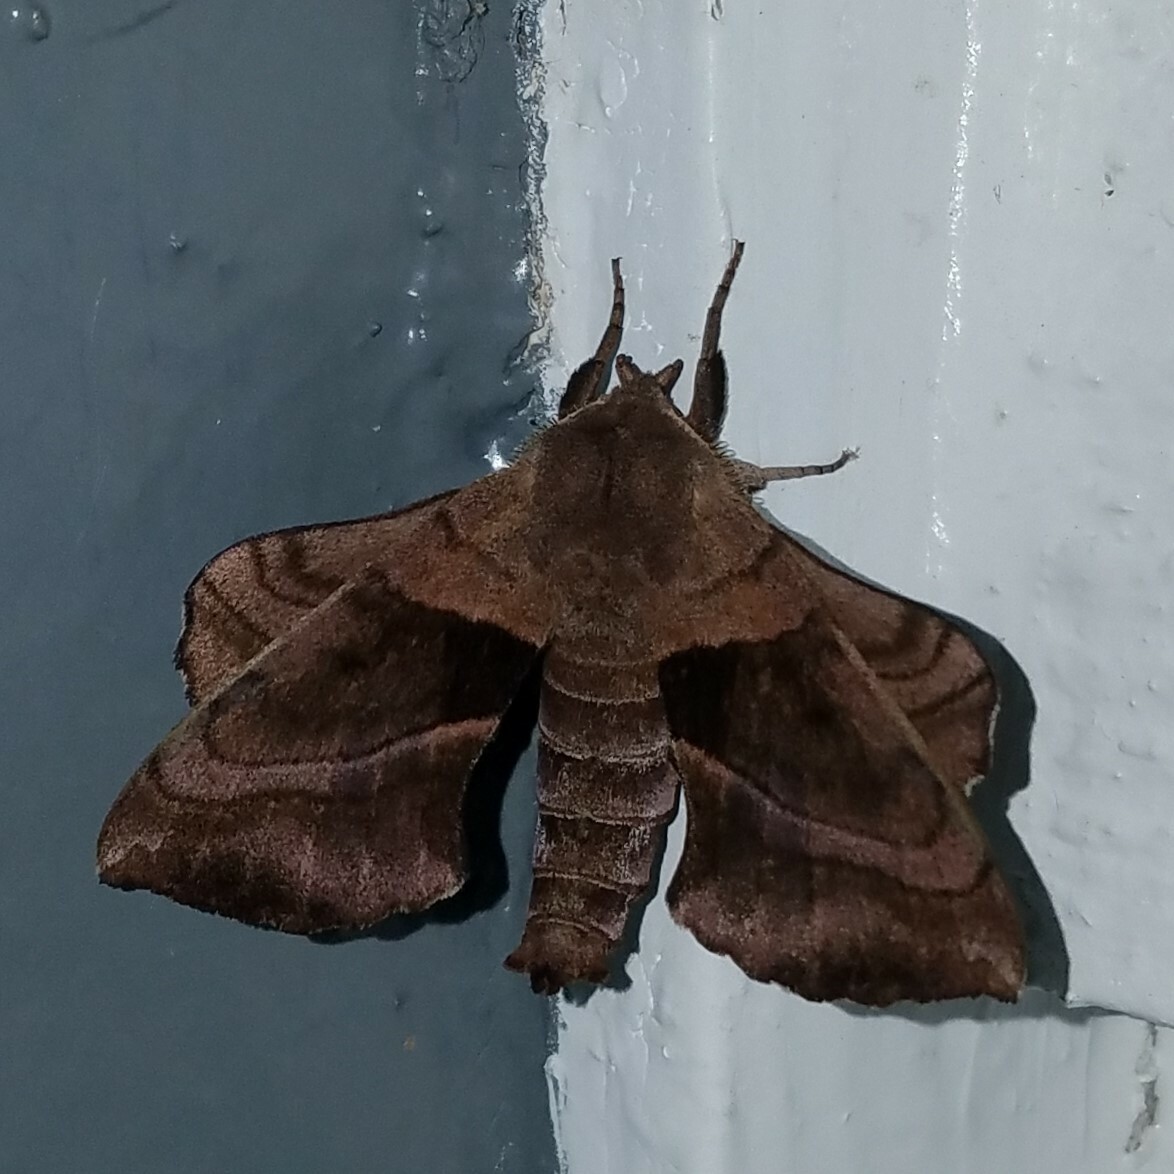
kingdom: Animalia
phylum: Arthropoda
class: Insecta
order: Lepidoptera
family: Sphingidae
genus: Amorpha
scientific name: Amorpha juglandis
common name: Walnut sphinx
